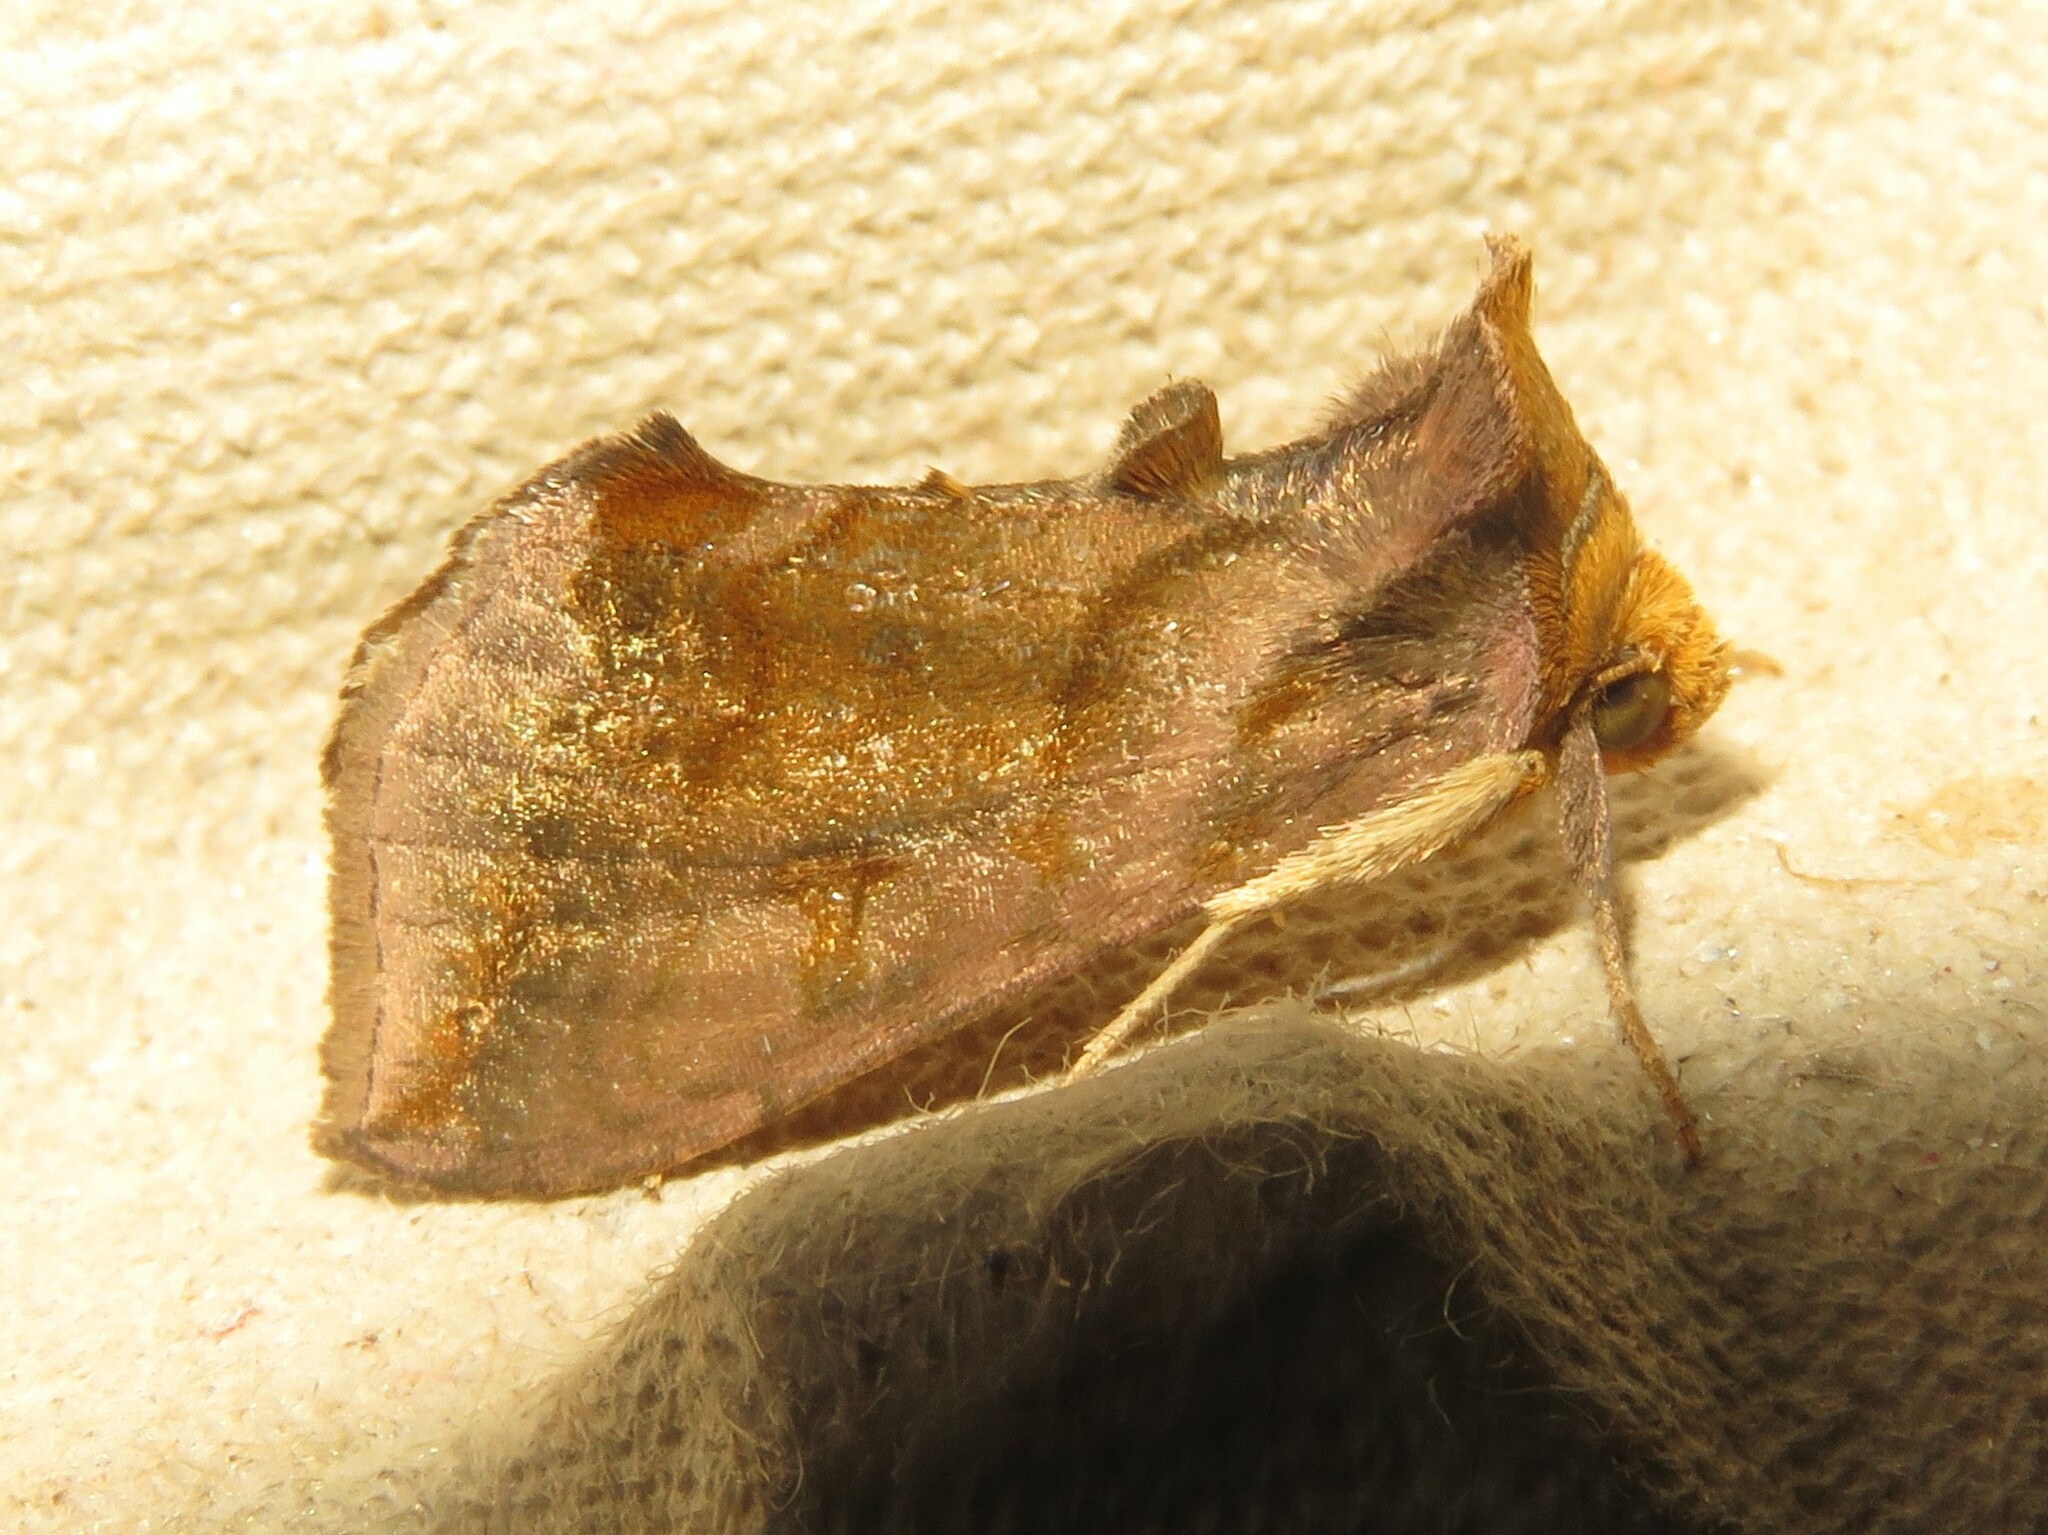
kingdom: Animalia
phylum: Arthropoda
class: Insecta
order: Lepidoptera
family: Noctuidae
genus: Allagrapha
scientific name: Allagrapha aerea
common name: Unspotted looper moth
